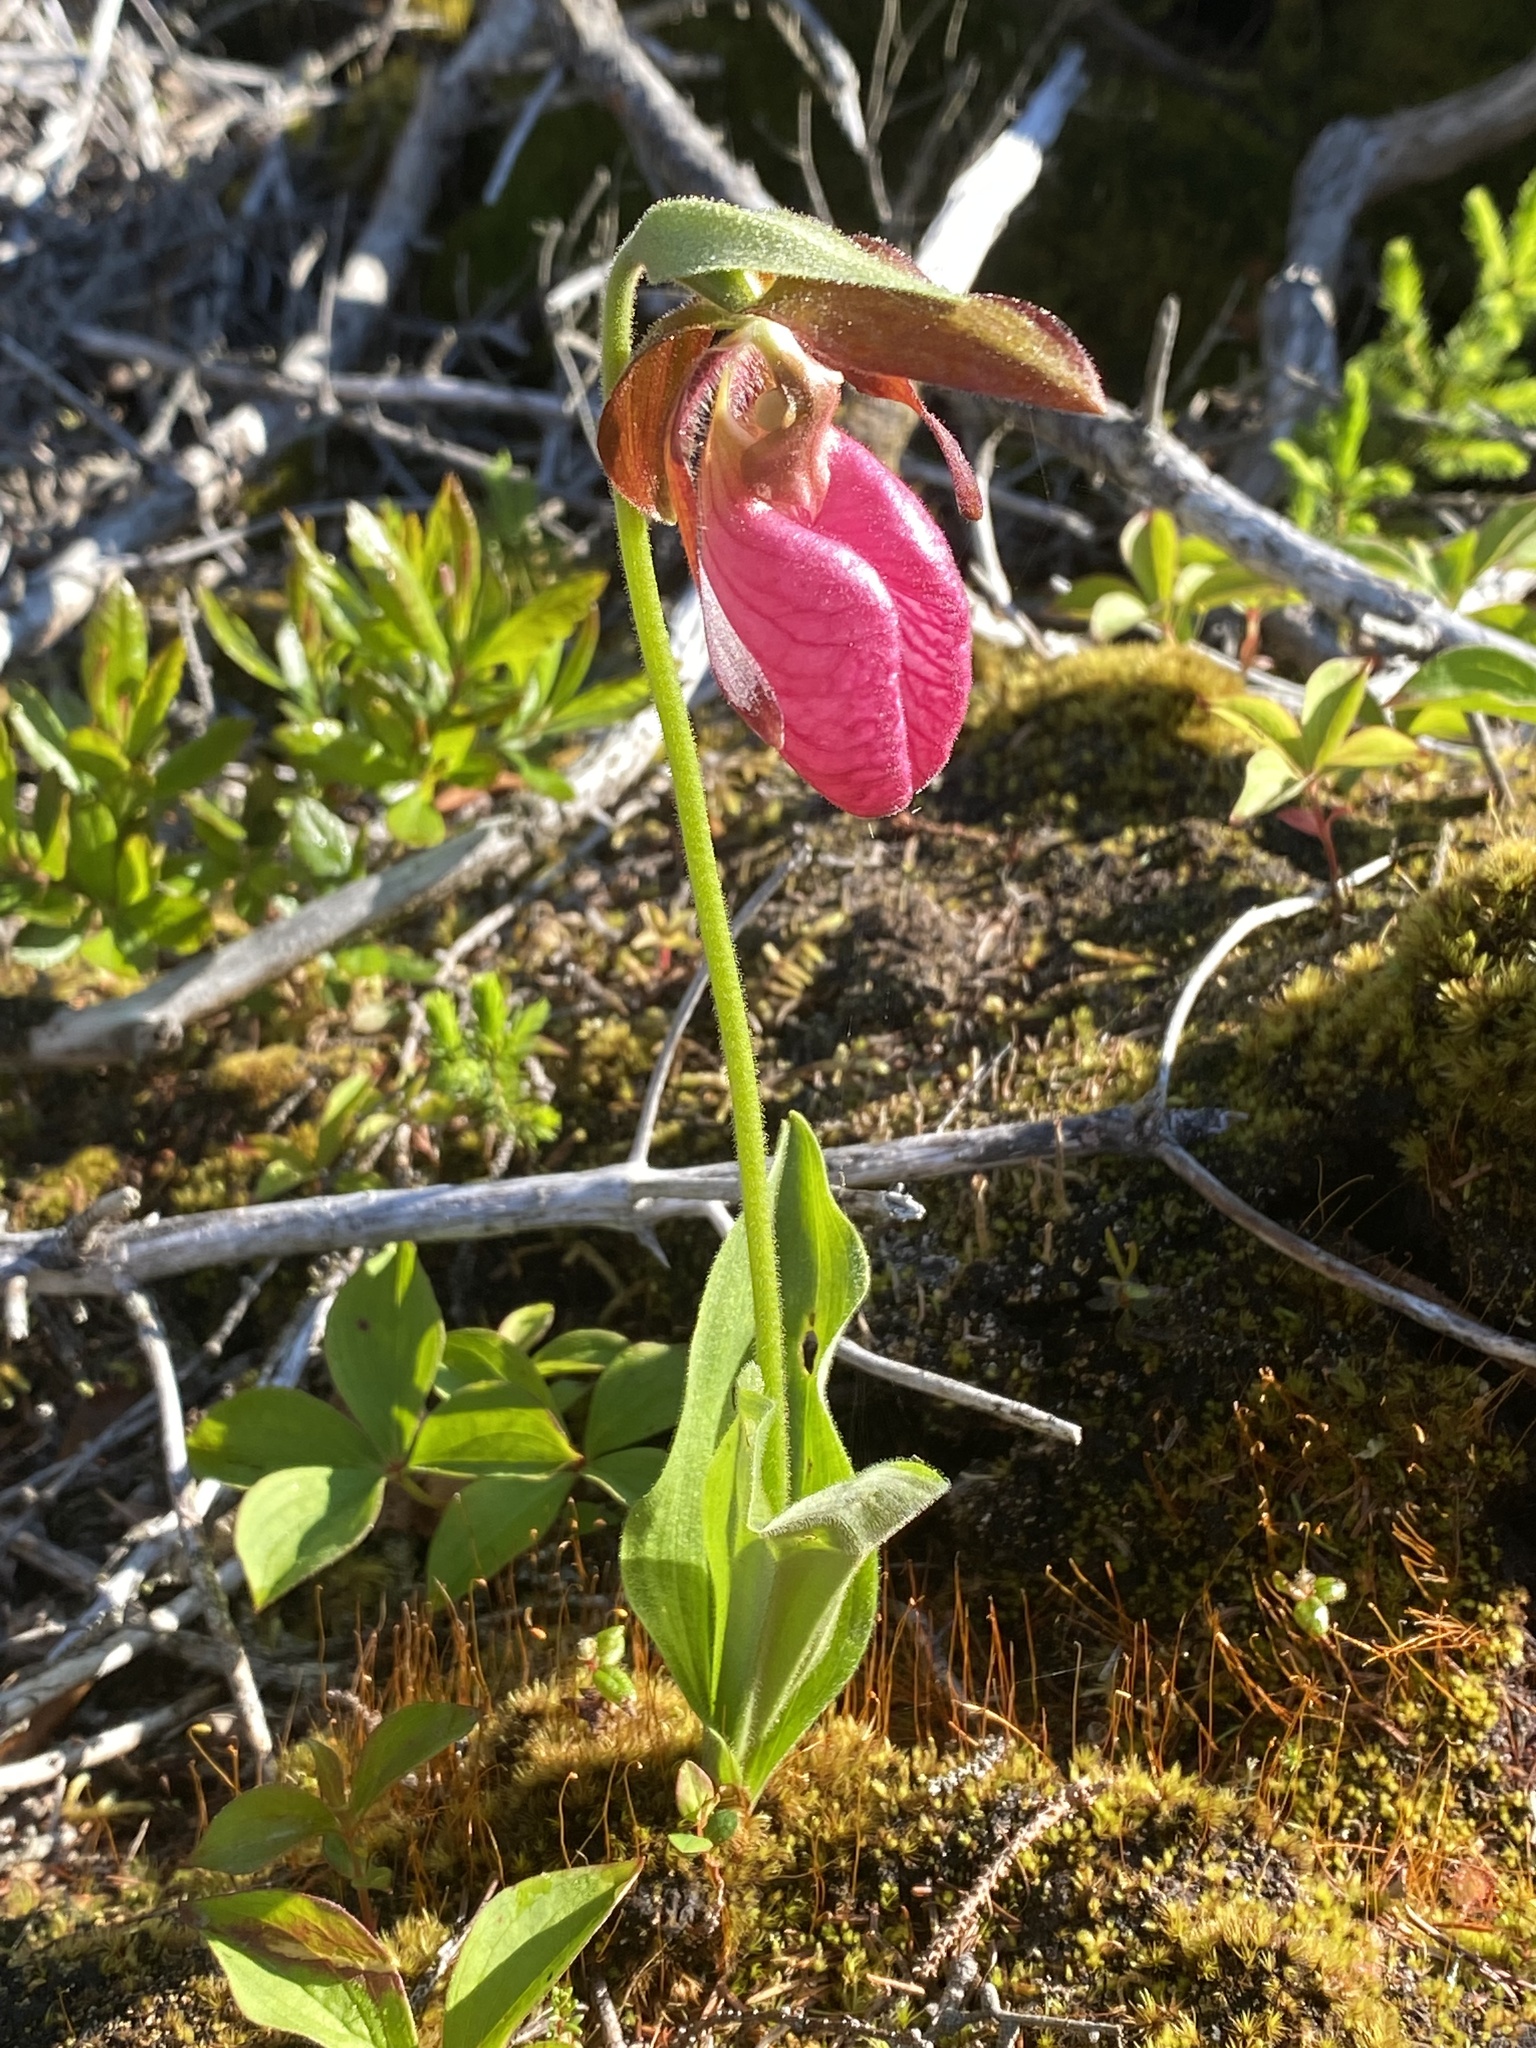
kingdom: Plantae
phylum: Tracheophyta
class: Liliopsida
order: Asparagales
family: Orchidaceae
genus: Cypripedium
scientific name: Cypripedium acaule
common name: Pink lady's-slipper
